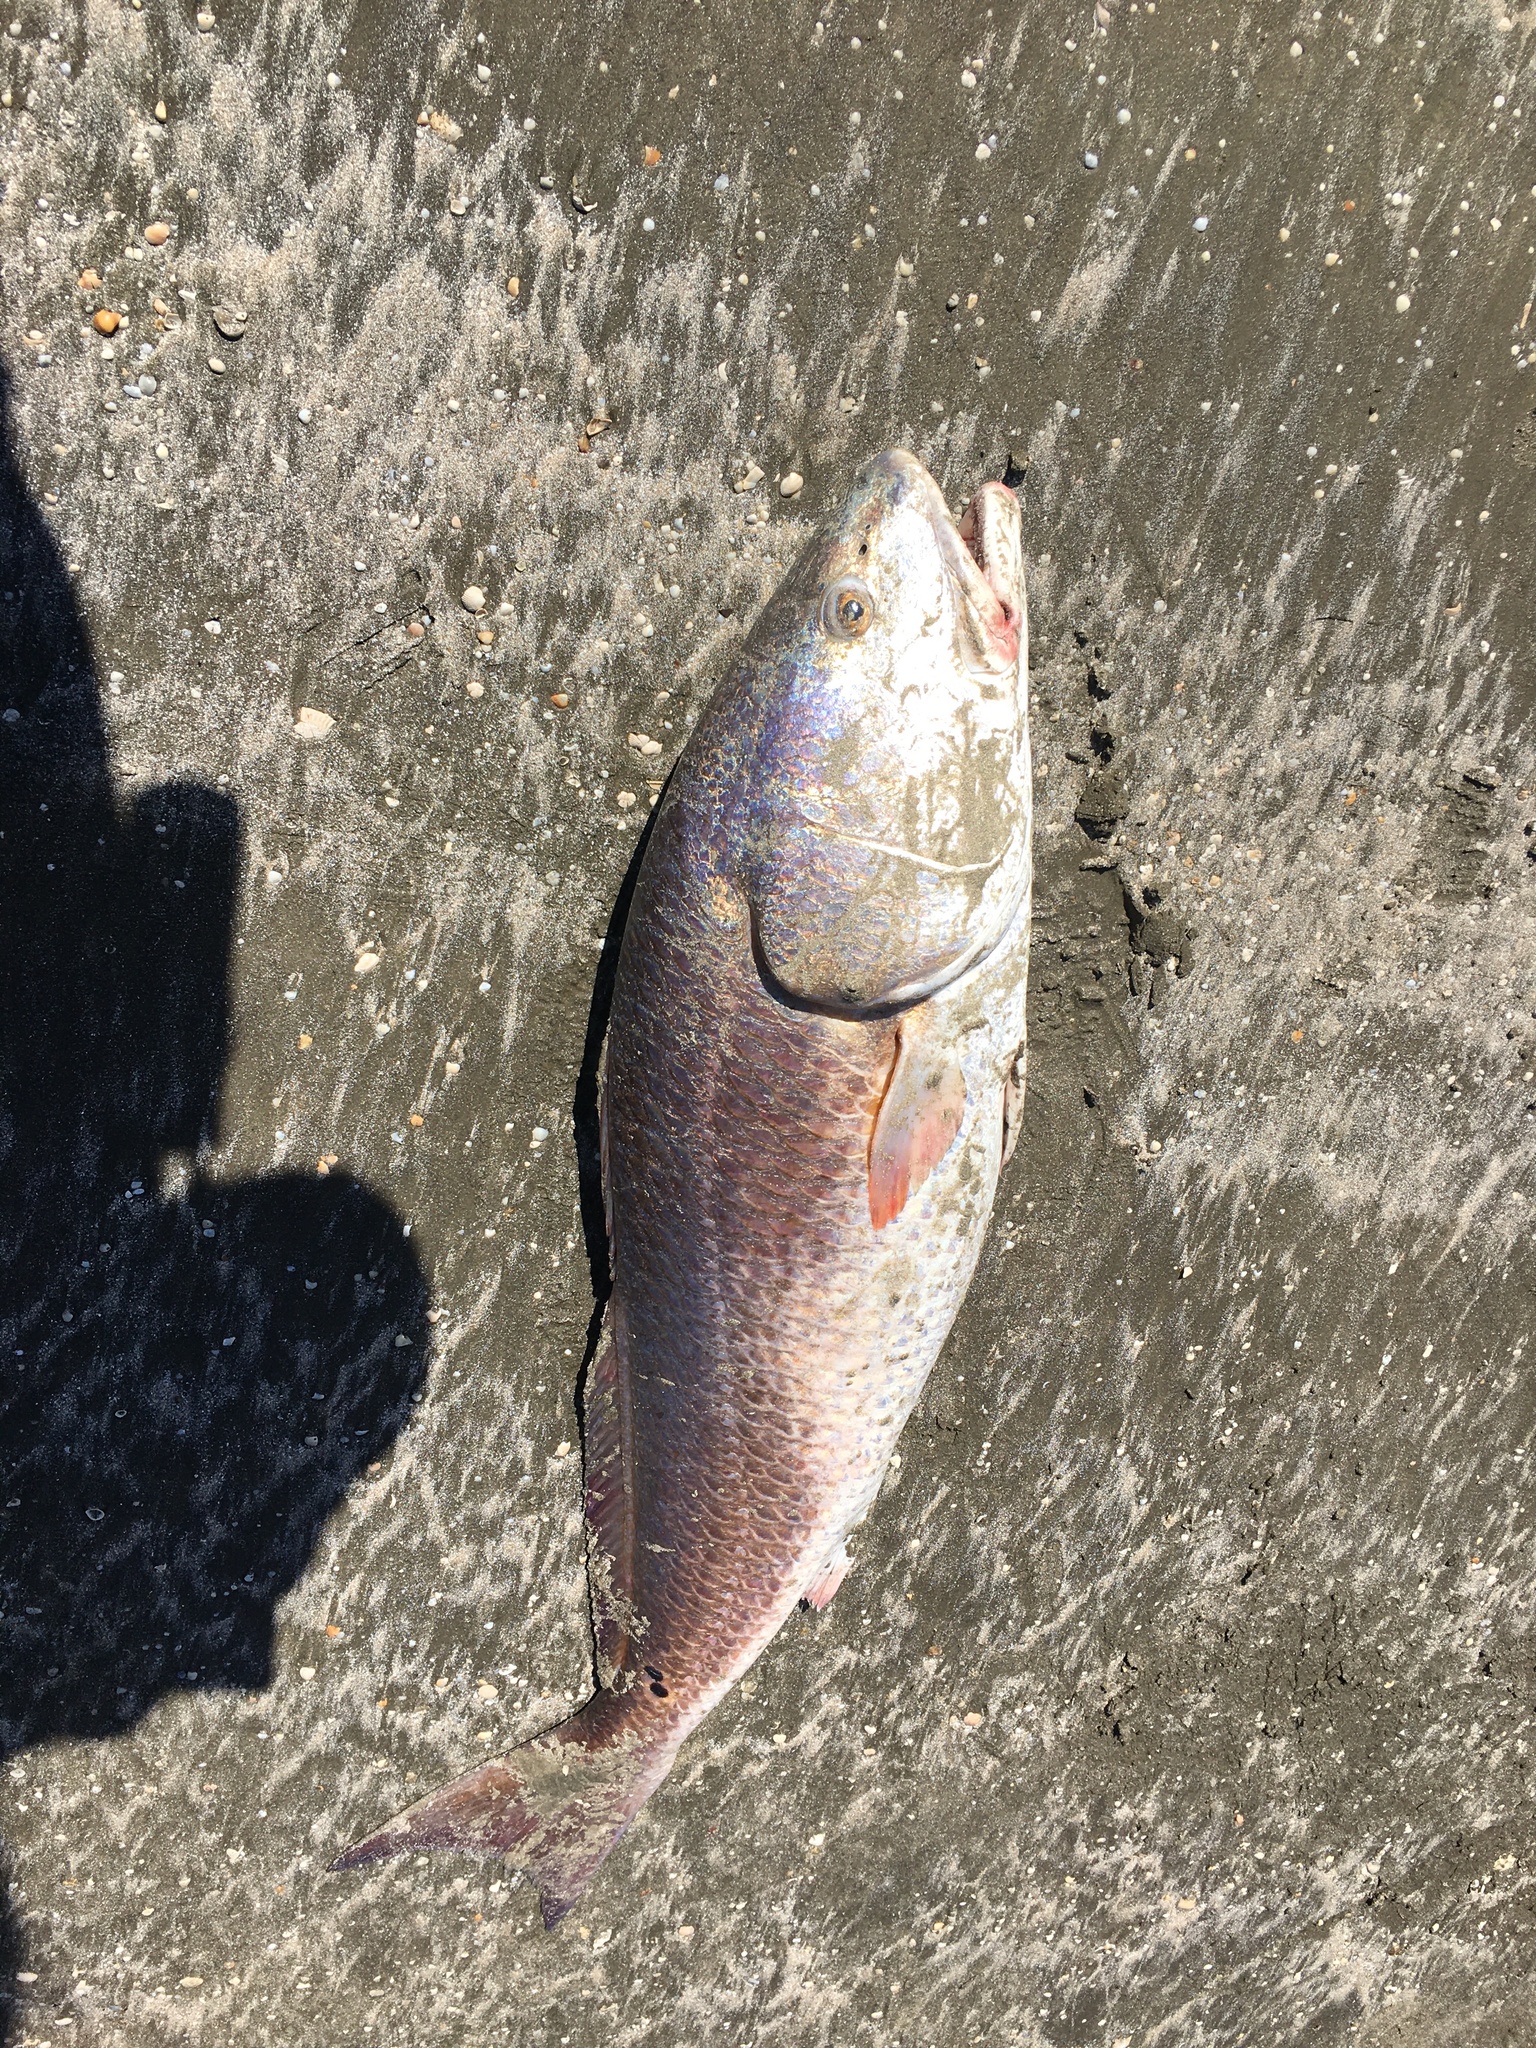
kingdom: Animalia
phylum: Chordata
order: Perciformes
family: Sciaenidae
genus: Sciaenops
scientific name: Sciaenops ocellatus
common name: Red drum
